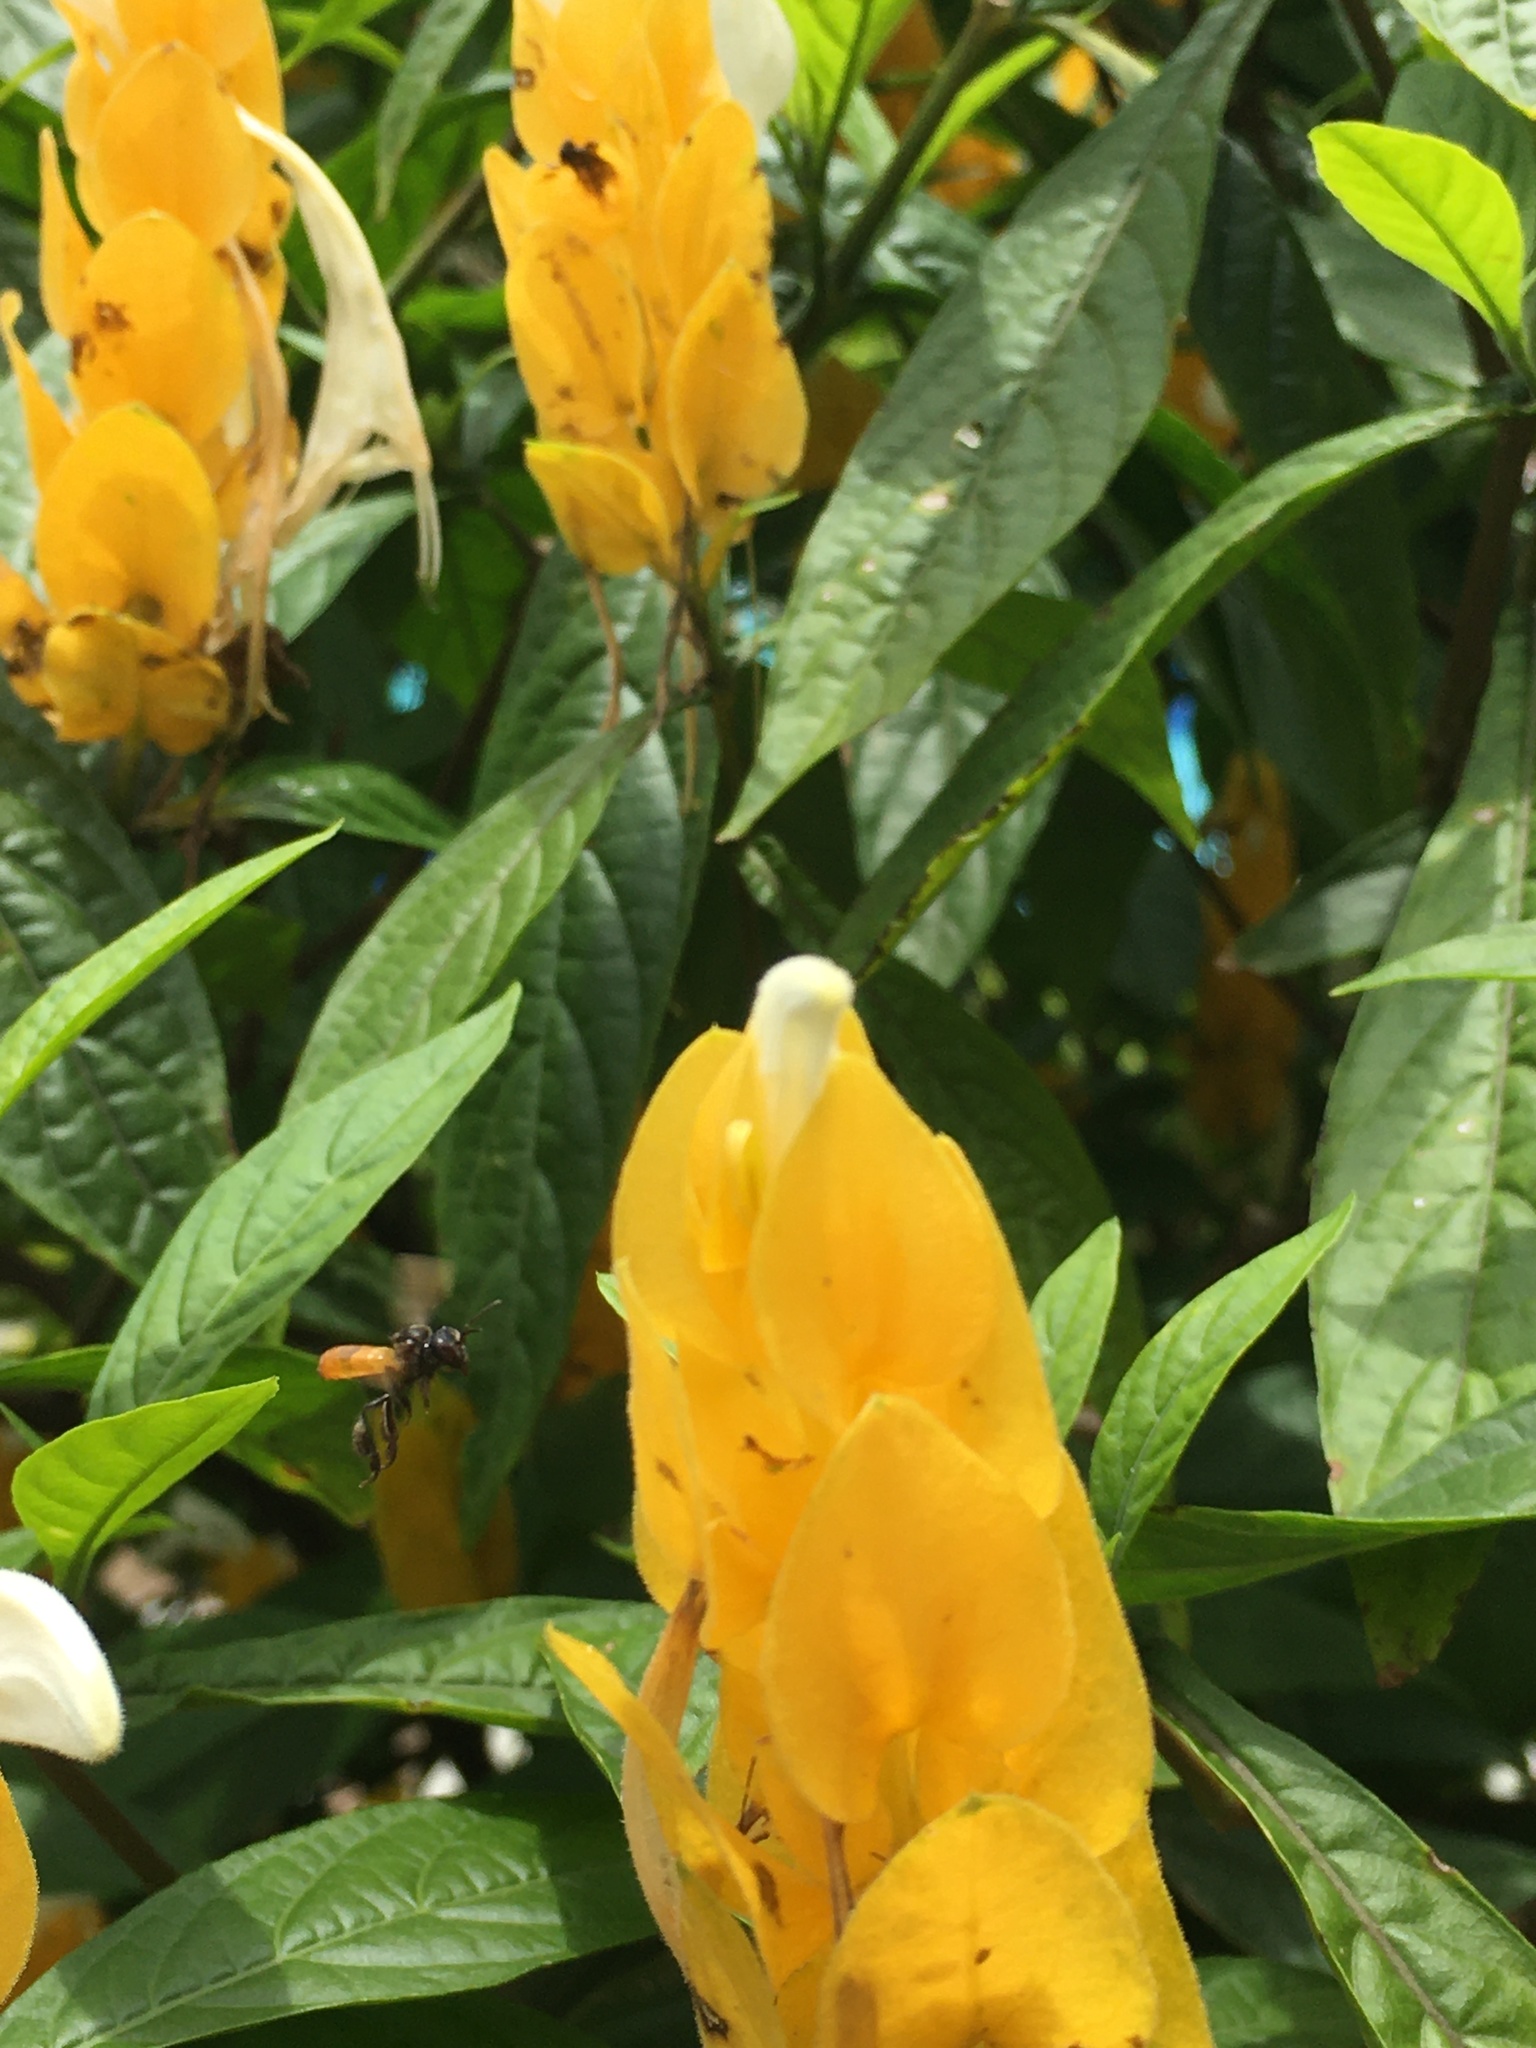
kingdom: Animalia
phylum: Arthropoda
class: Insecta
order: Hymenoptera
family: Apidae
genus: Trigona
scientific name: Trigona fulviventris
